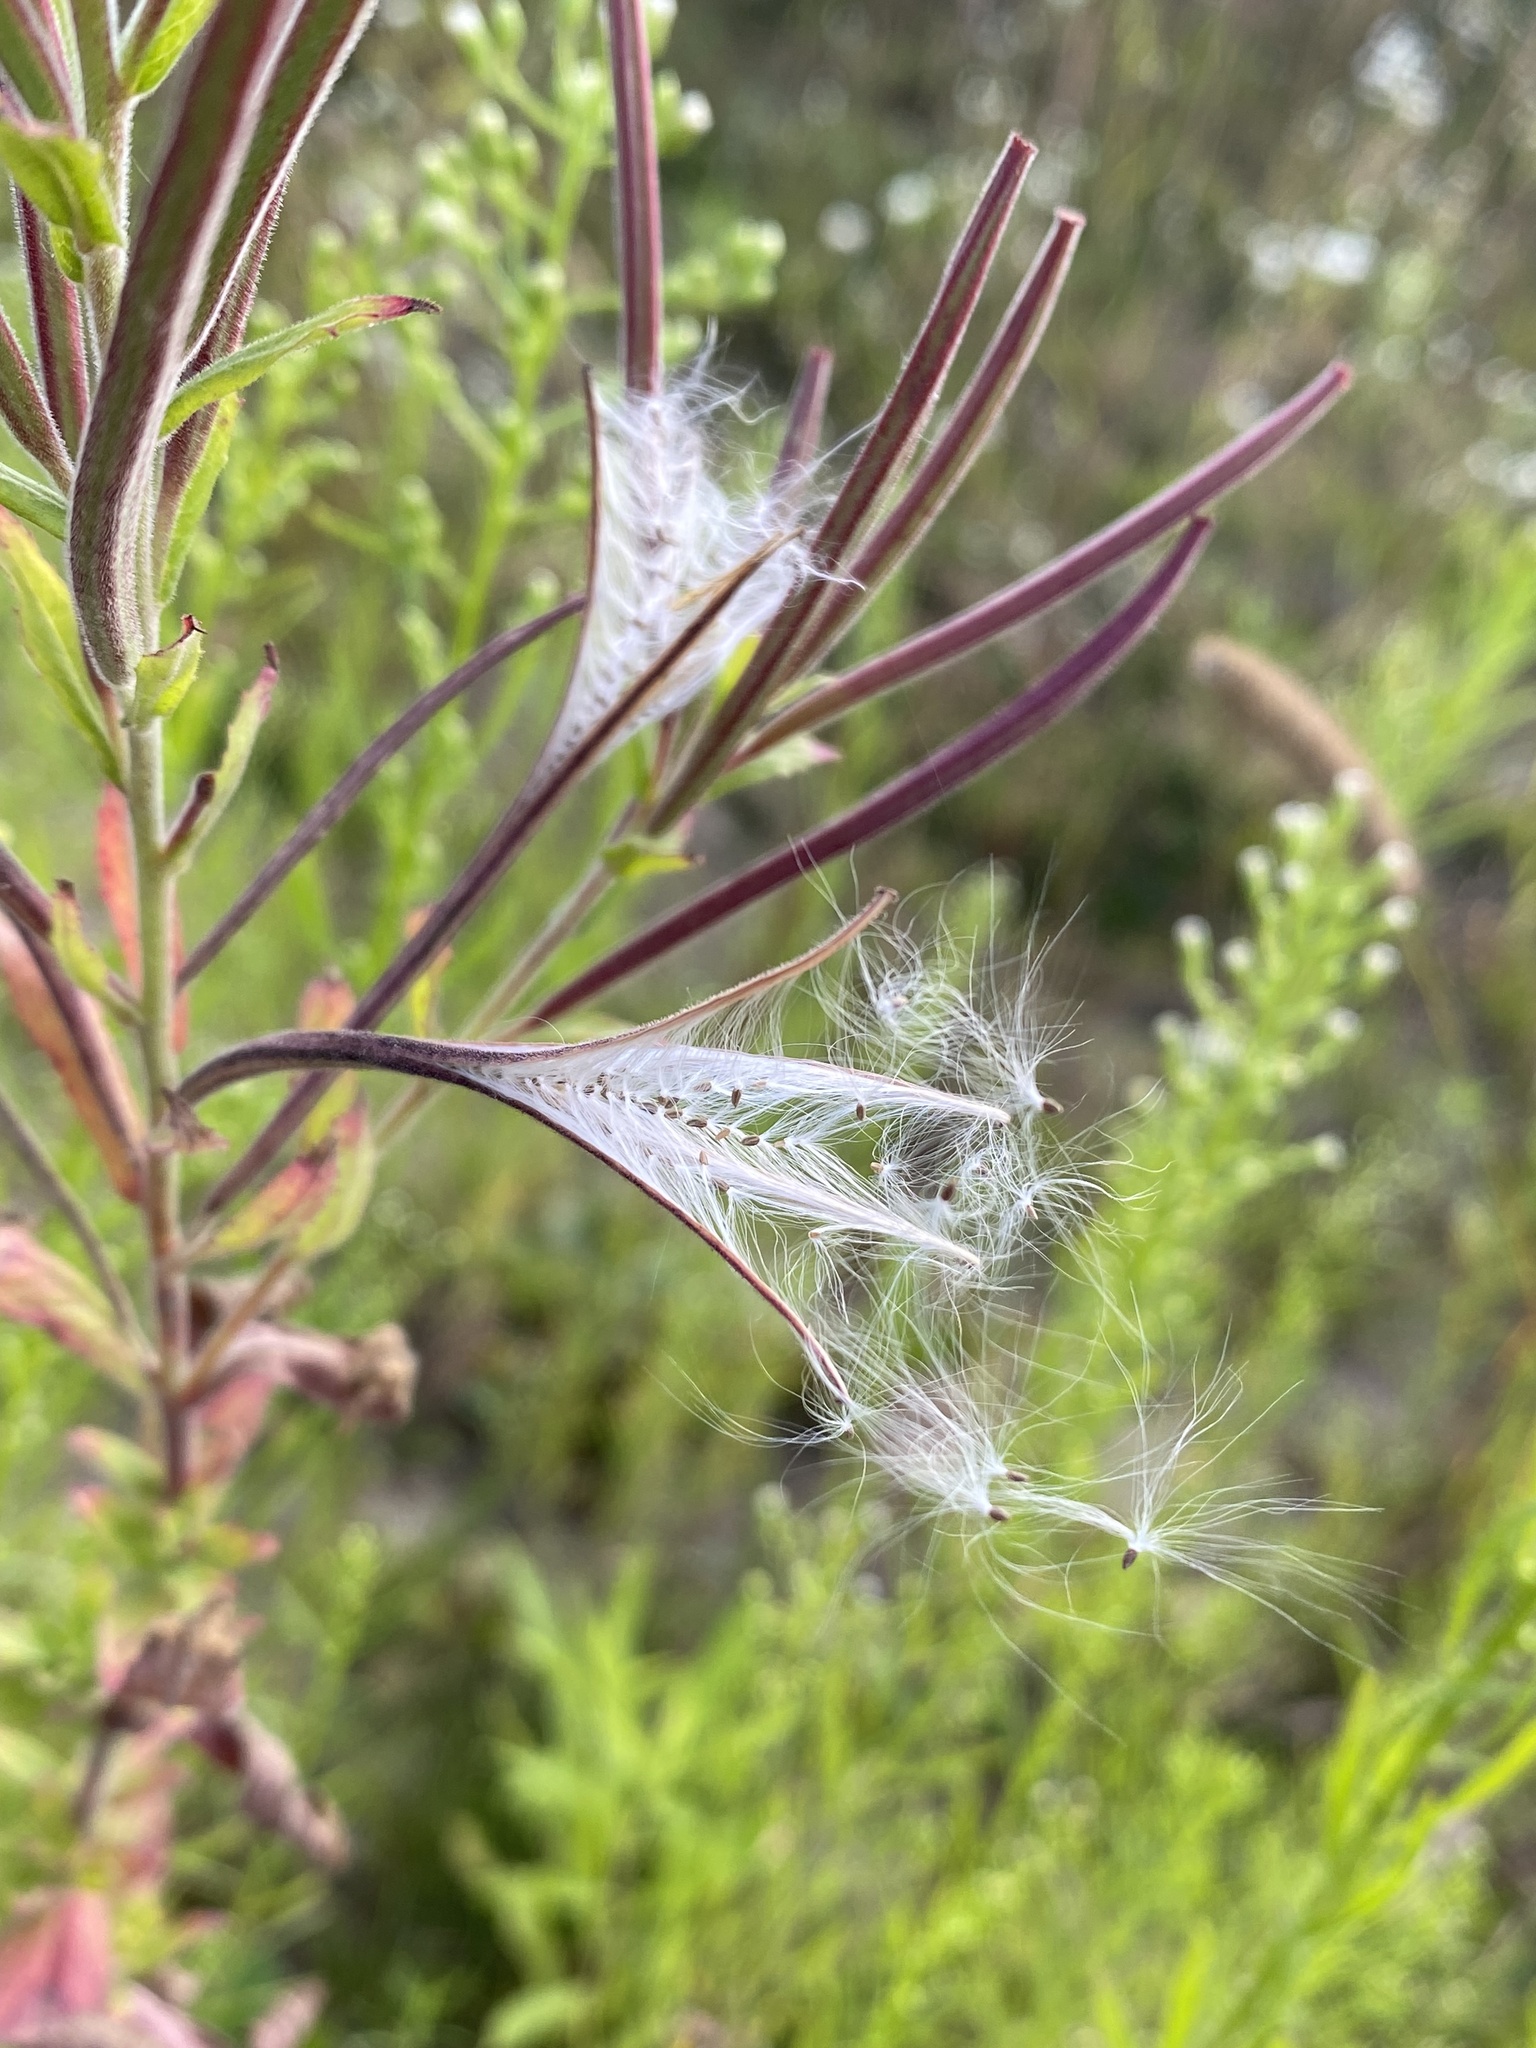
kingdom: Plantae
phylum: Tracheophyta
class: Magnoliopsida
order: Myrtales
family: Onagraceae
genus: Epilobium
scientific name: Epilobium hirsutum
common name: Great willowherb
